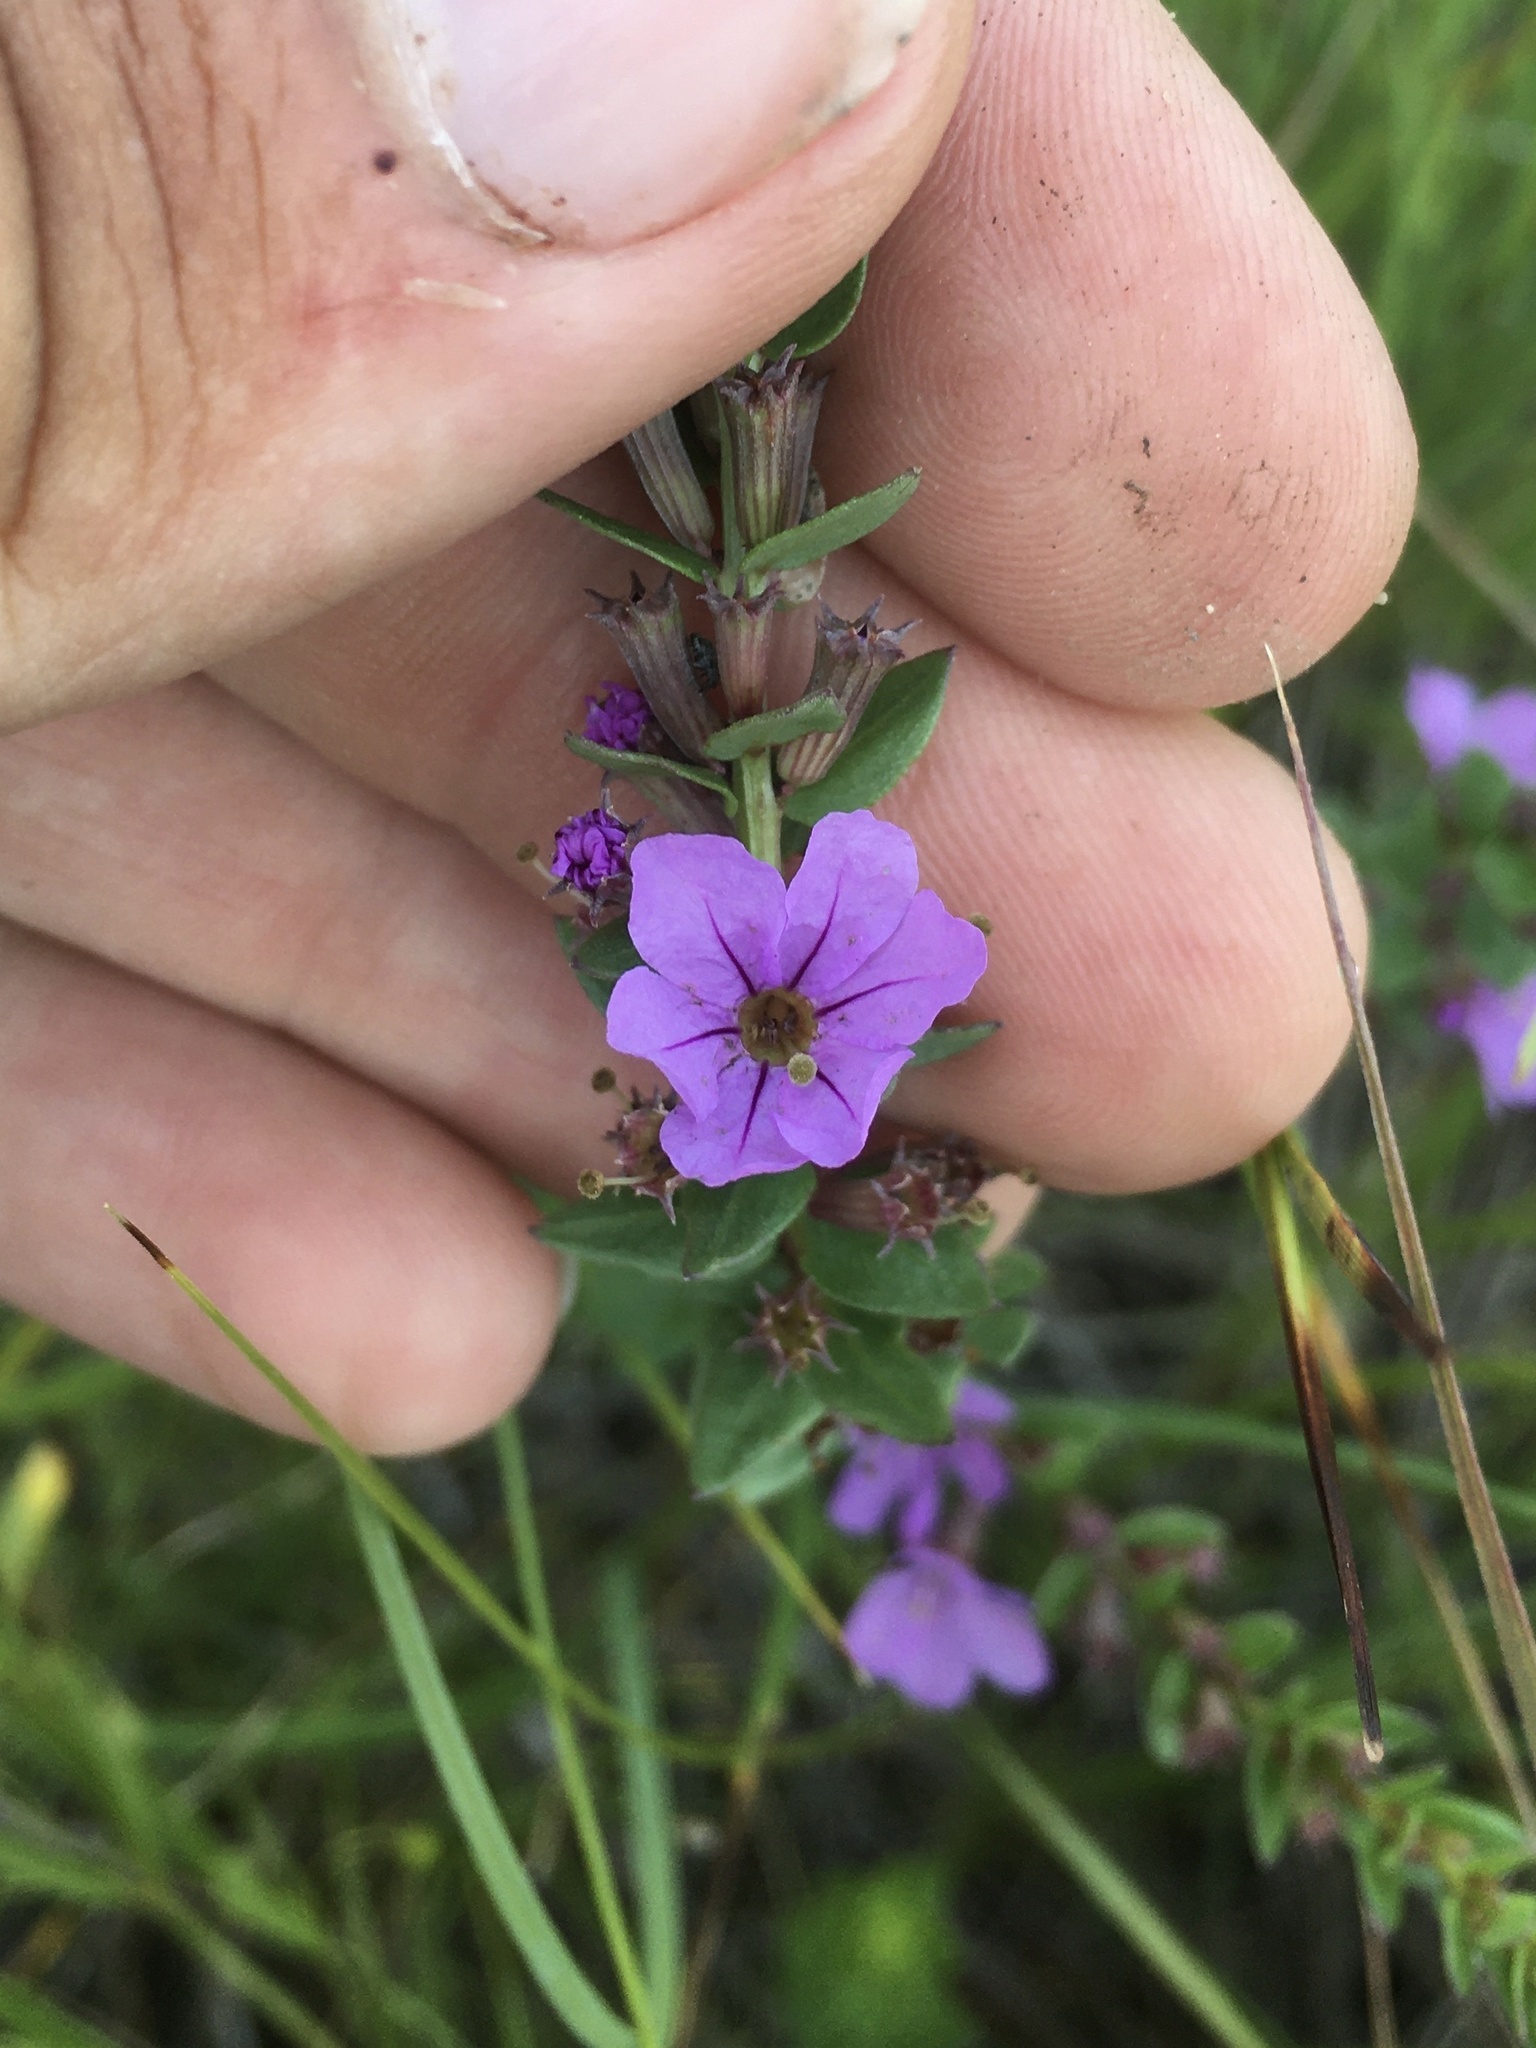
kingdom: Plantae
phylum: Tracheophyta
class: Magnoliopsida
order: Myrtales
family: Lythraceae
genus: Lythrum
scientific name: Lythrum alatum
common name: Winged loosestrife
